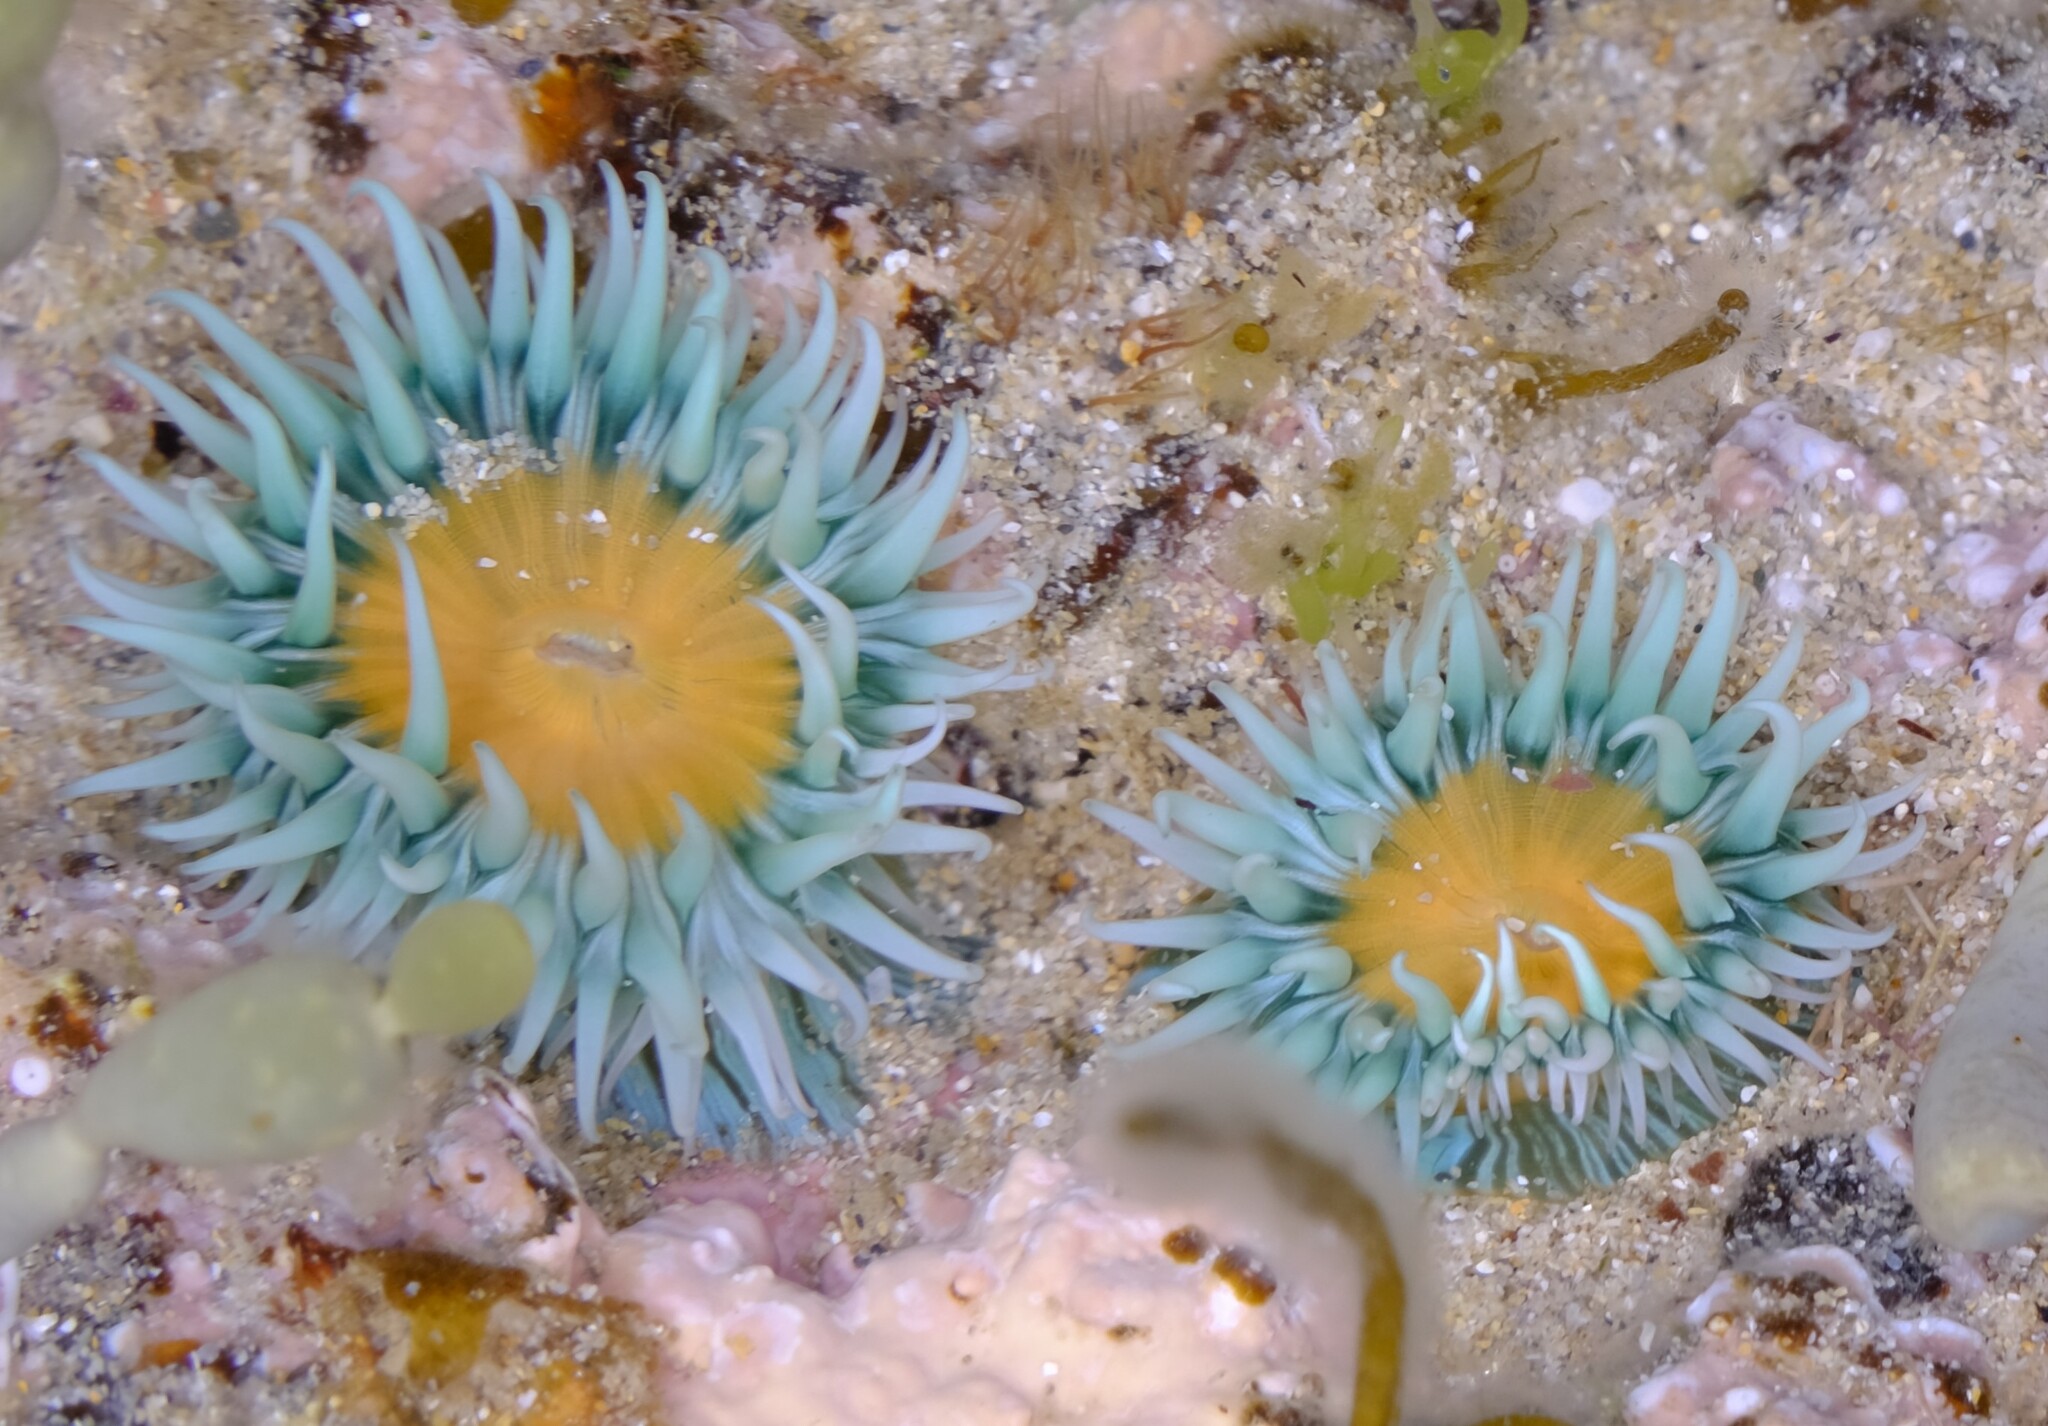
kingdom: Animalia
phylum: Cnidaria
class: Anthozoa
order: Actiniaria
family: Sagartiidae
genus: Anthothoe
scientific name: Anthothoe albocincta
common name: Orange striped anemone
